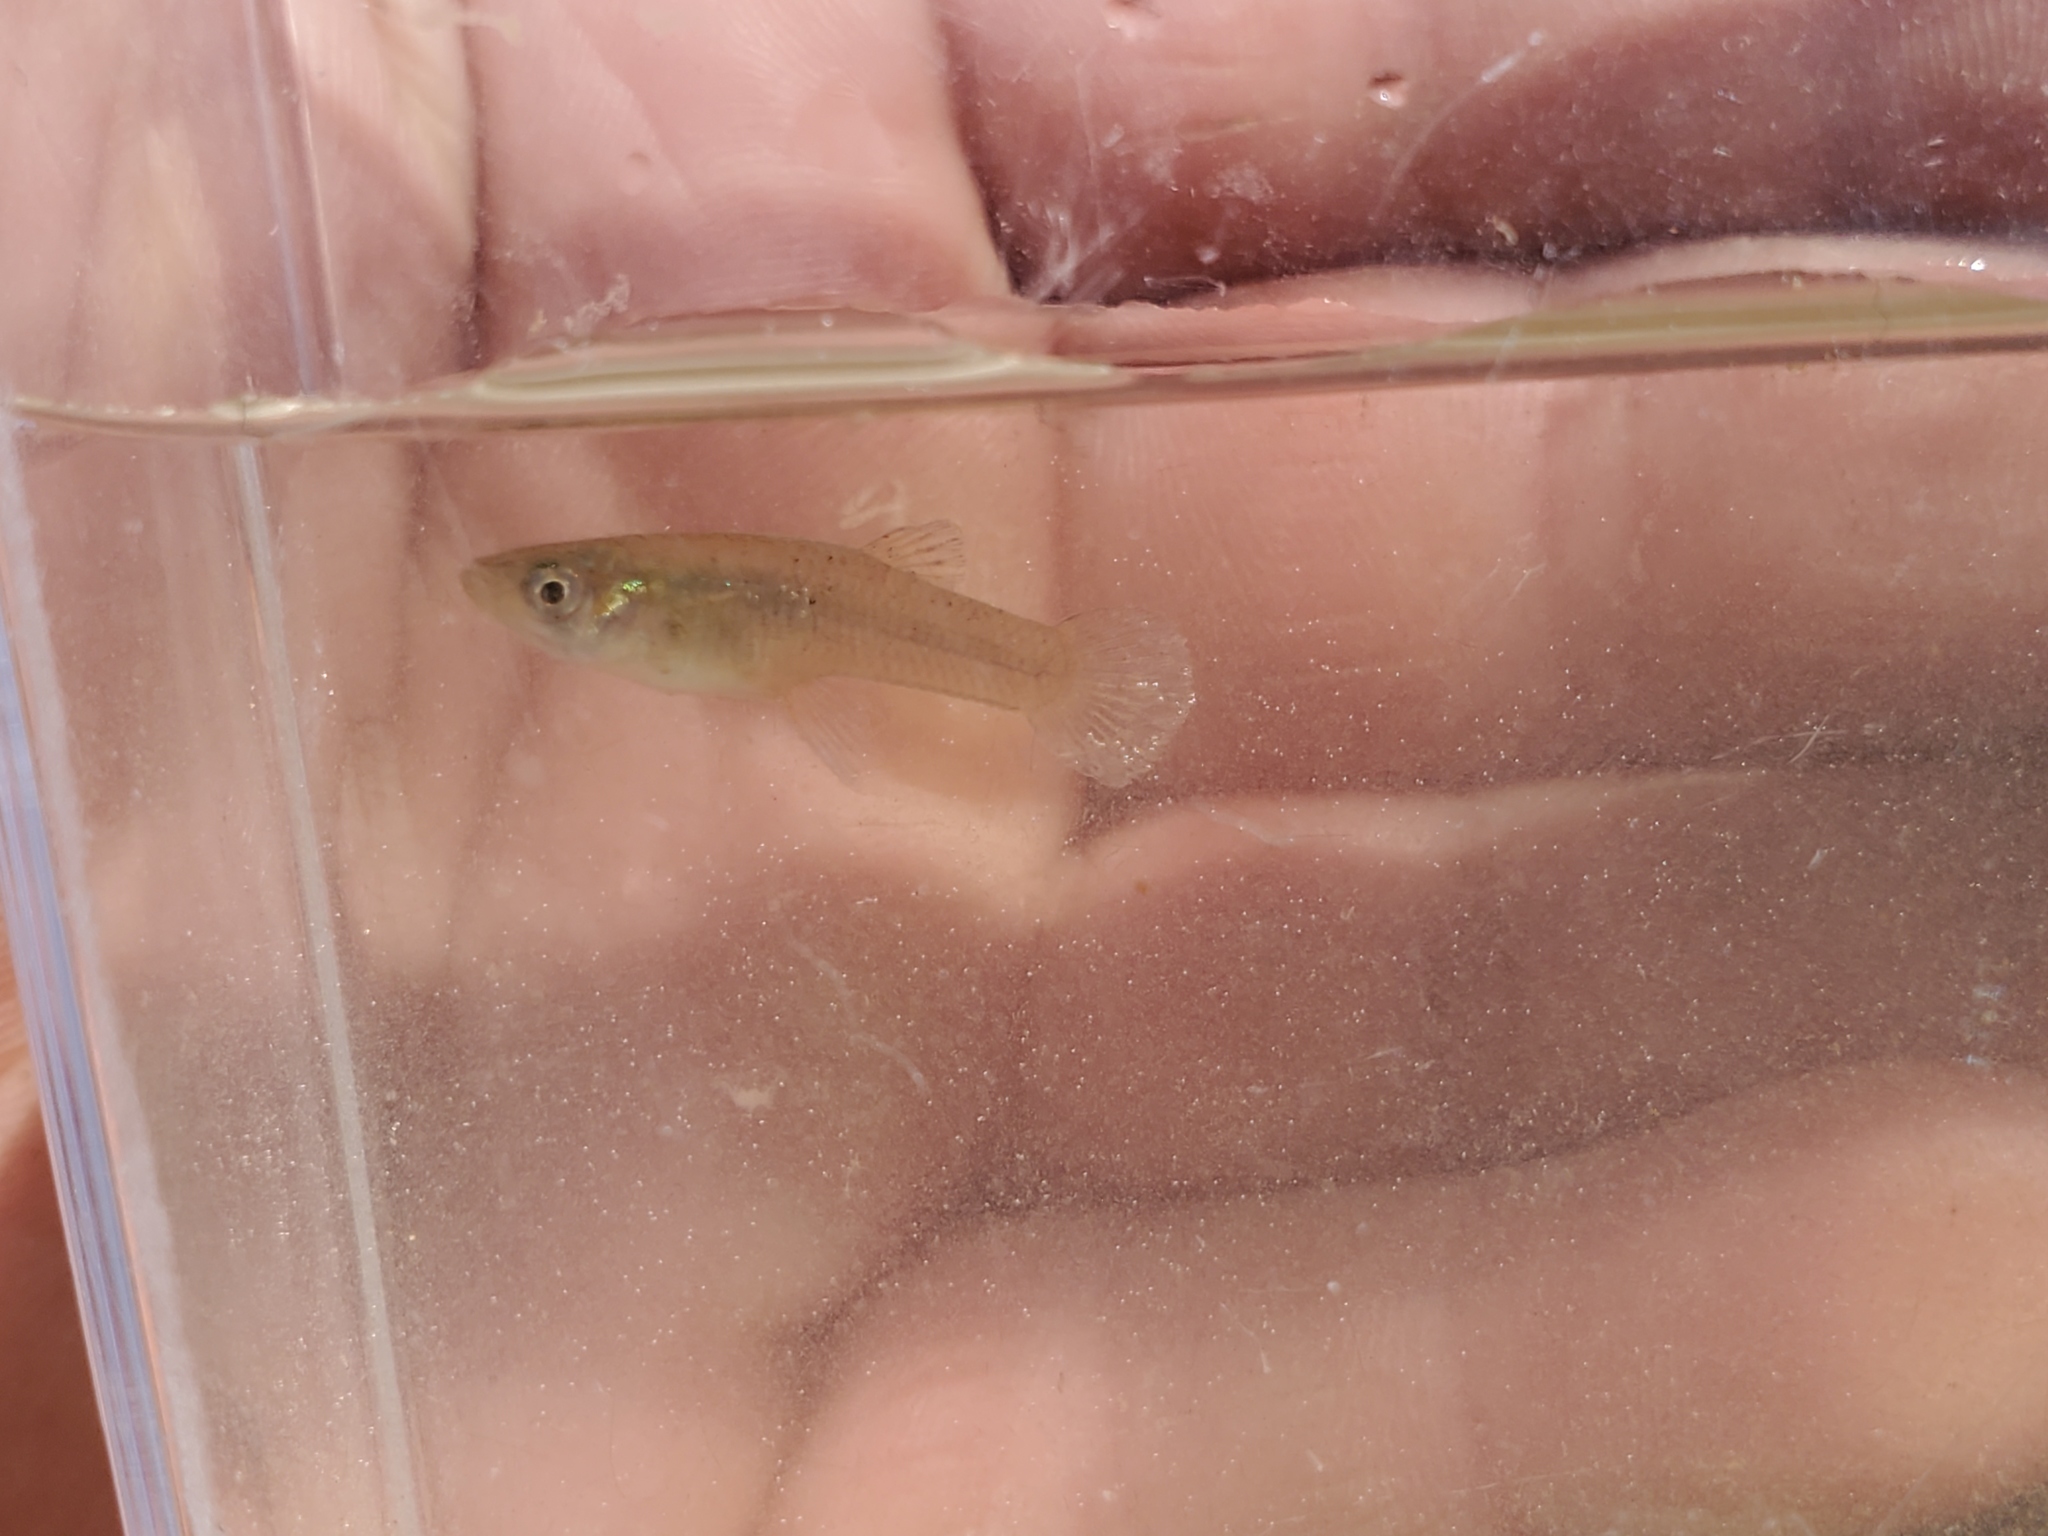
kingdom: Animalia
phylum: Chordata
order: Cyprinodontiformes
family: Poeciliidae
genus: Gambusia
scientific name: Gambusia affinis
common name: Mosquitofish
